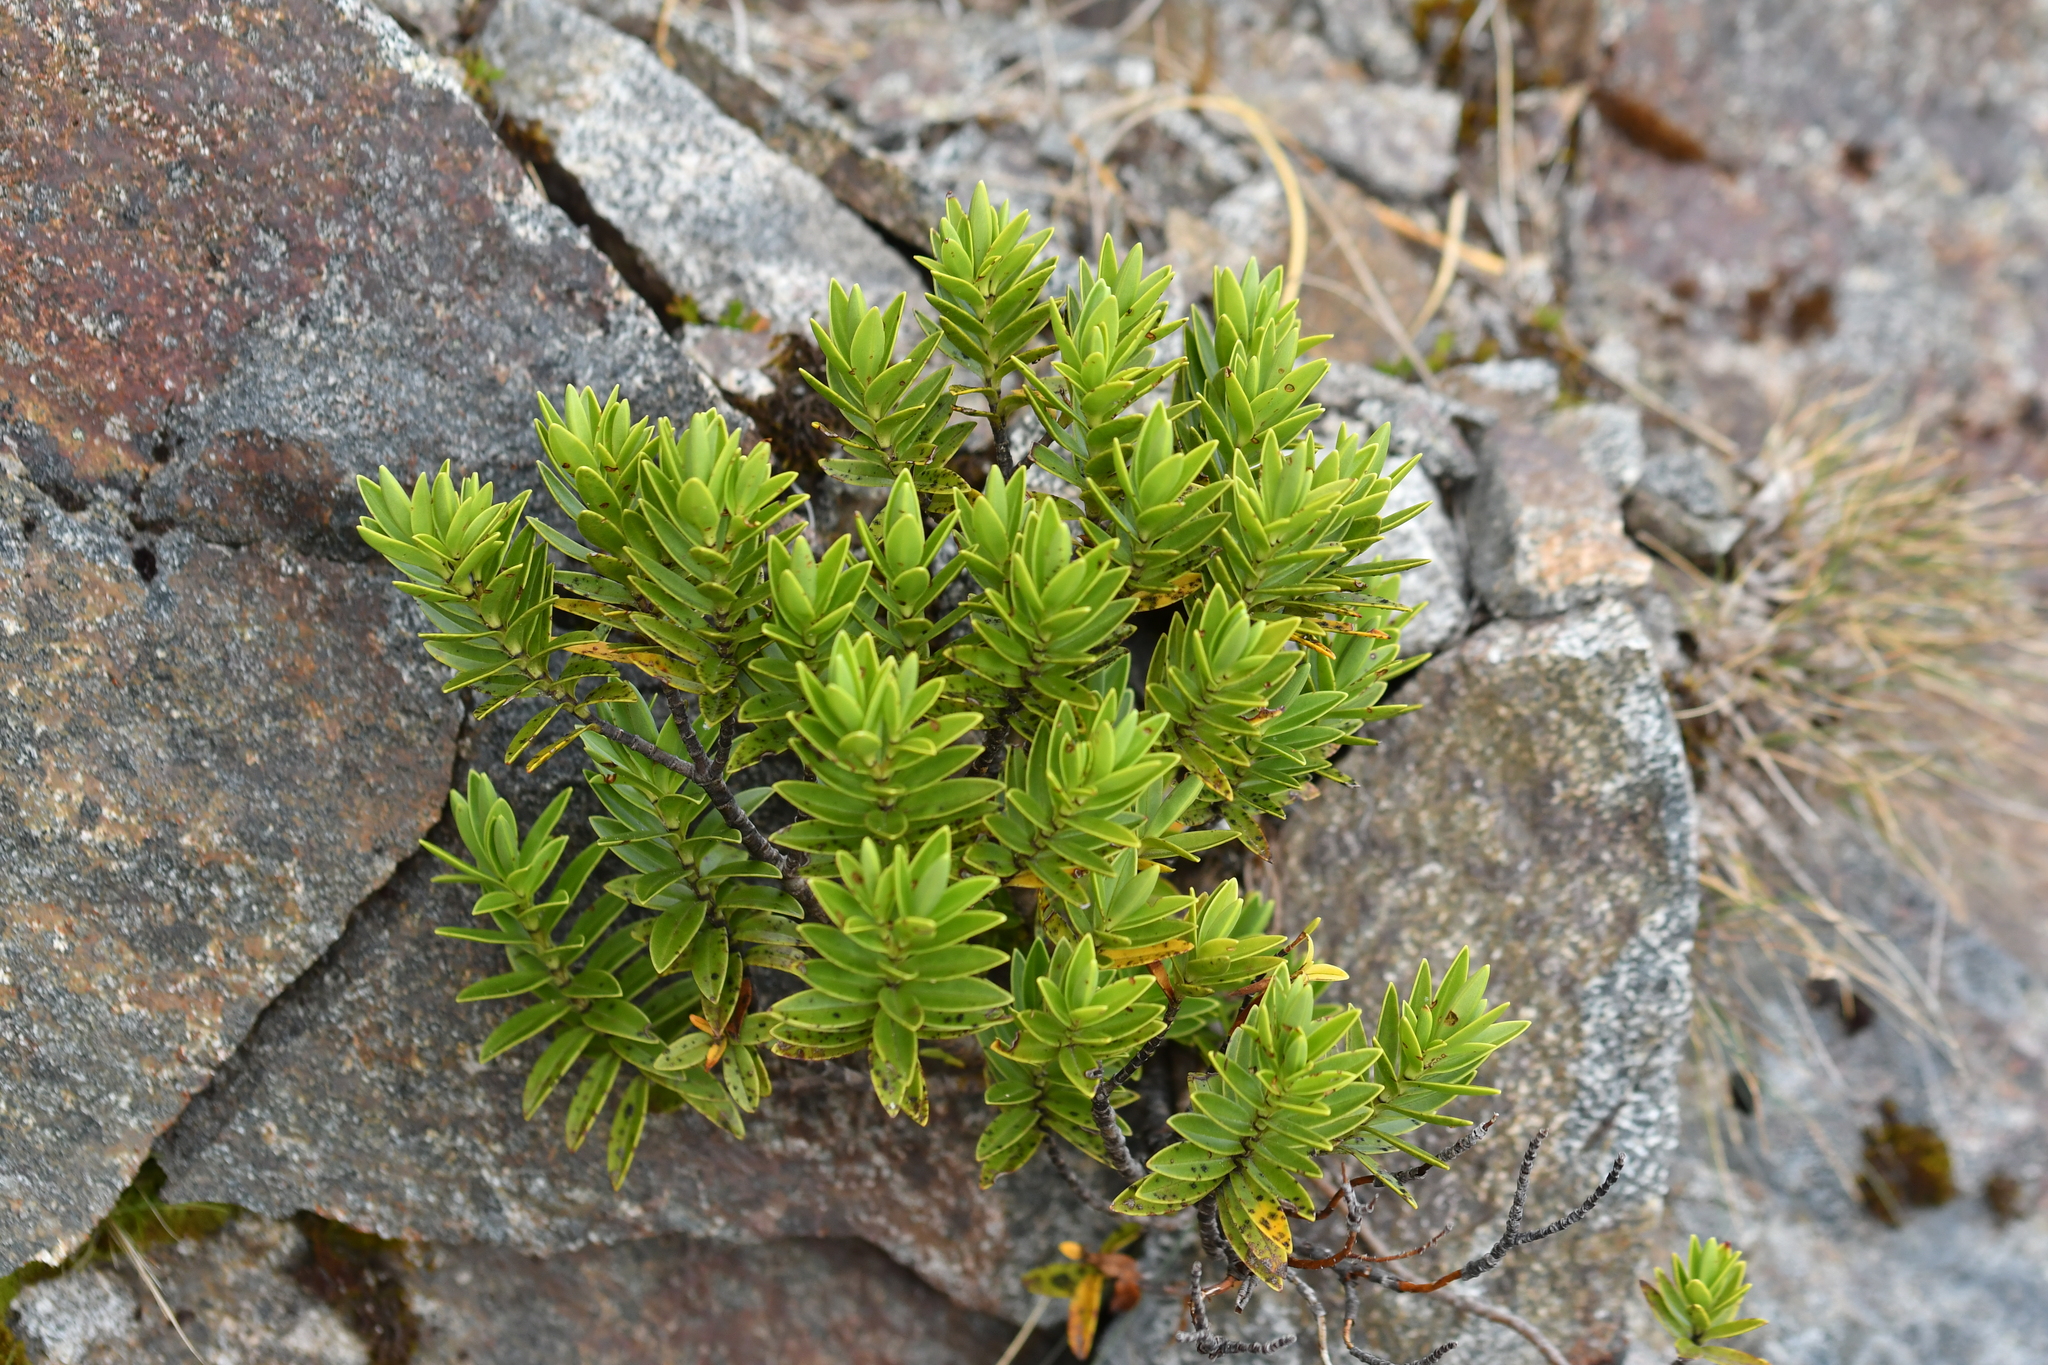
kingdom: Plantae
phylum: Tracheophyta
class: Magnoliopsida
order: Lamiales
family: Plantaginaceae
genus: Veronica
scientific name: Veronica subalpina
